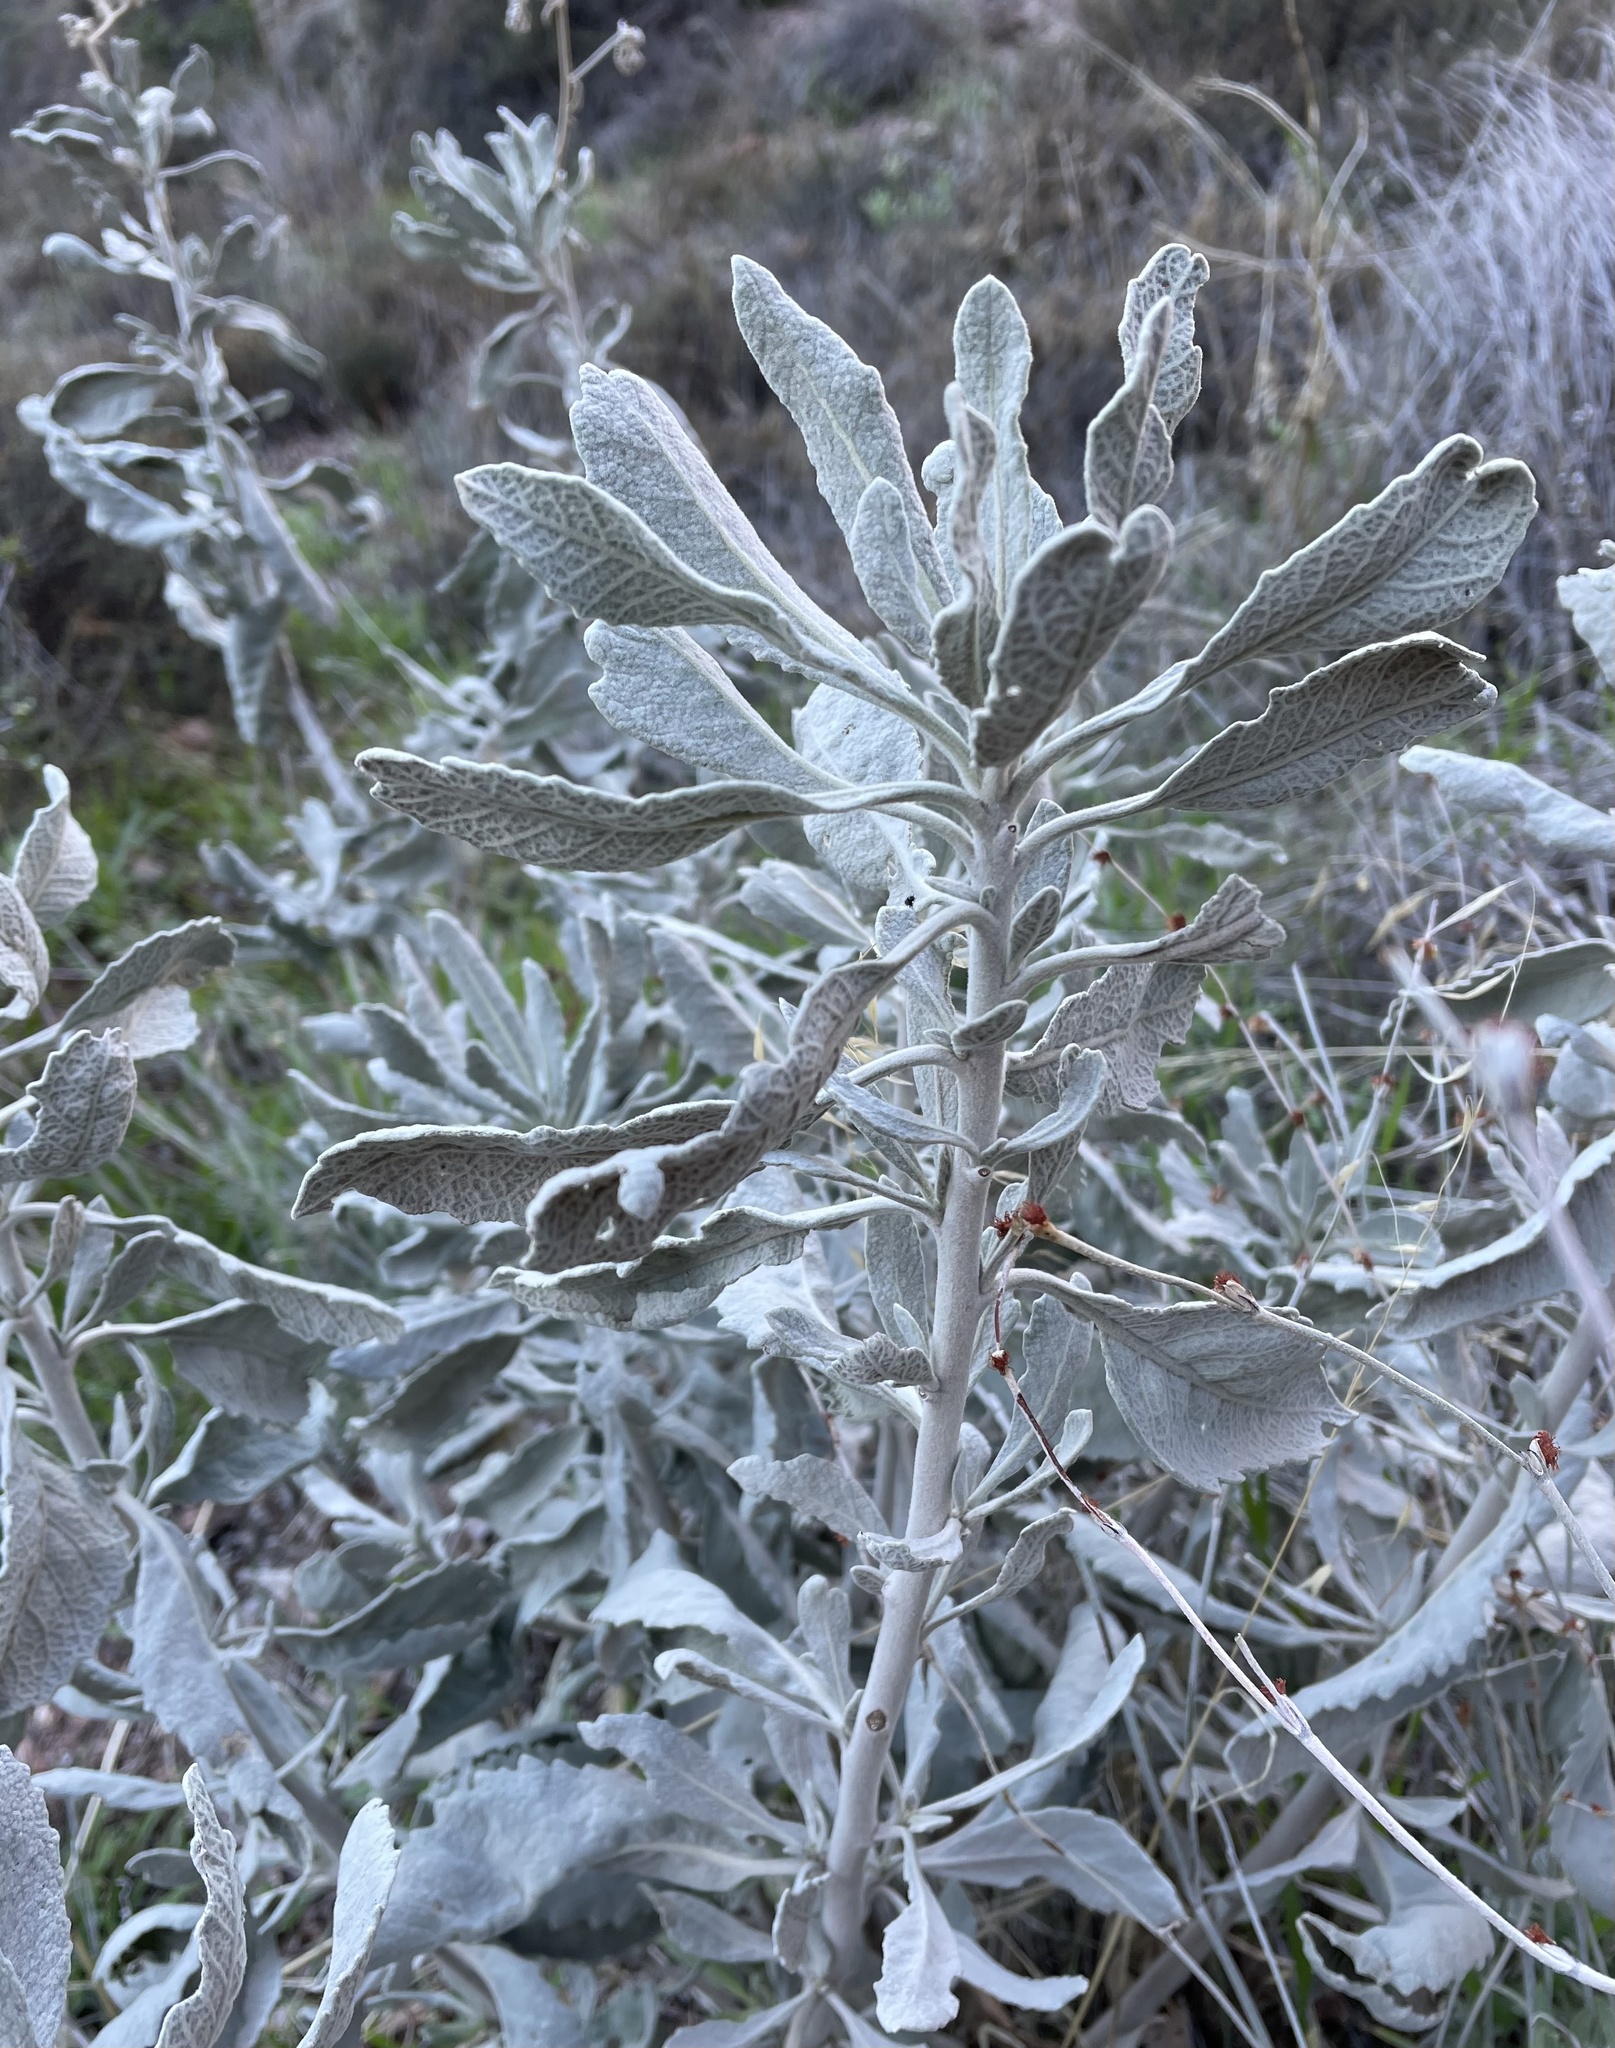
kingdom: Plantae
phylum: Tracheophyta
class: Magnoliopsida
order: Boraginales
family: Namaceae
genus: Eriodictyon
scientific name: Eriodictyon tomentosum
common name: Woolly yerba-santa
